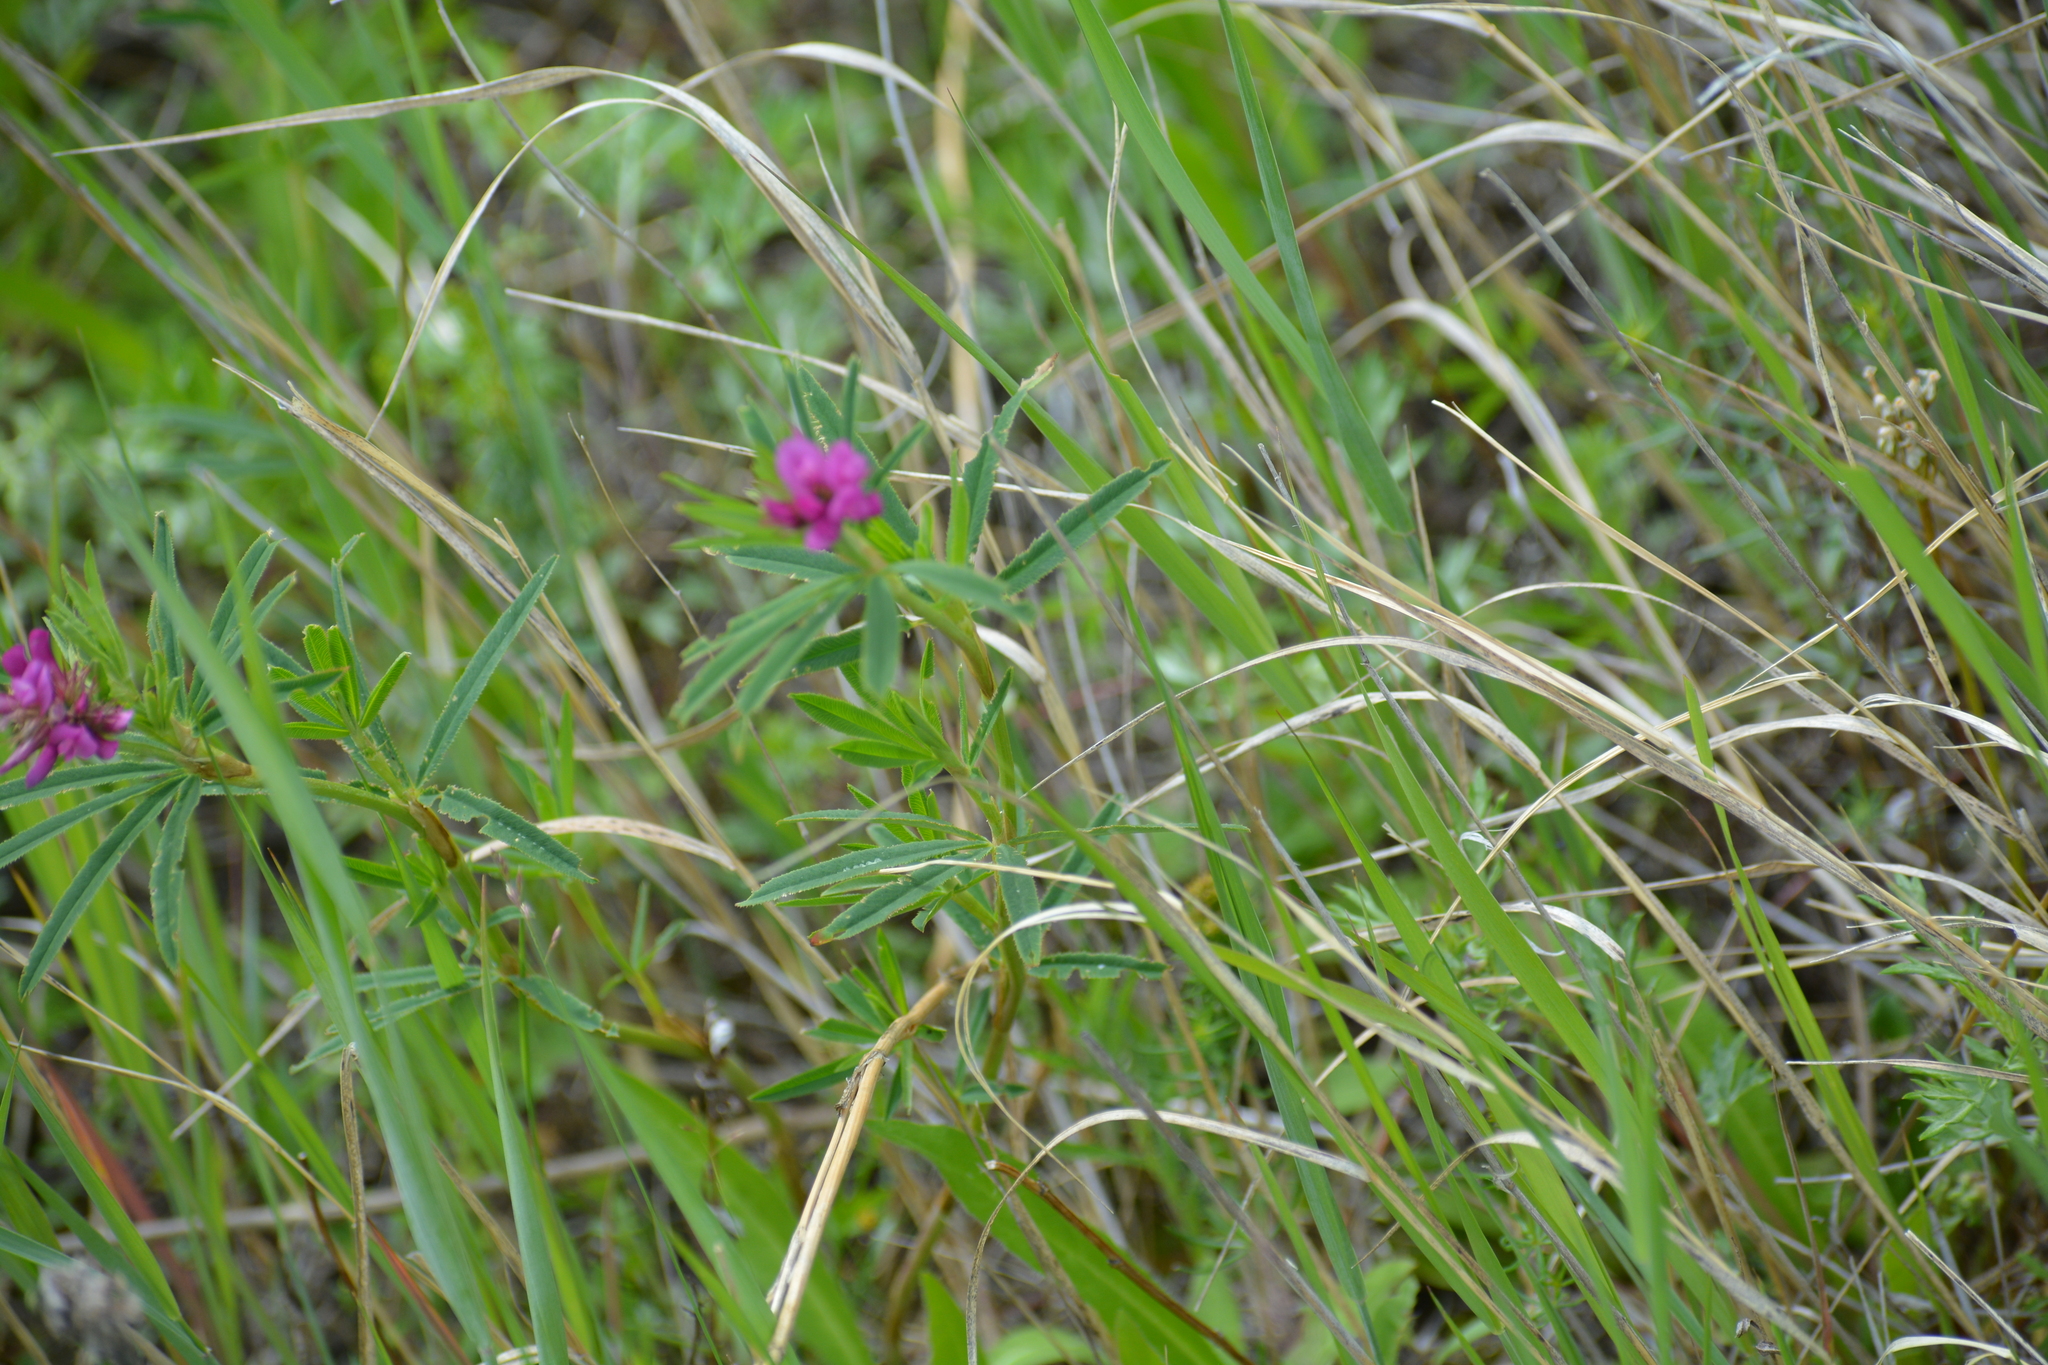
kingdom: Plantae
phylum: Tracheophyta
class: Magnoliopsida
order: Fabales
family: Fabaceae
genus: Trifolium
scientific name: Trifolium lupinaster
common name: Lupine clover
